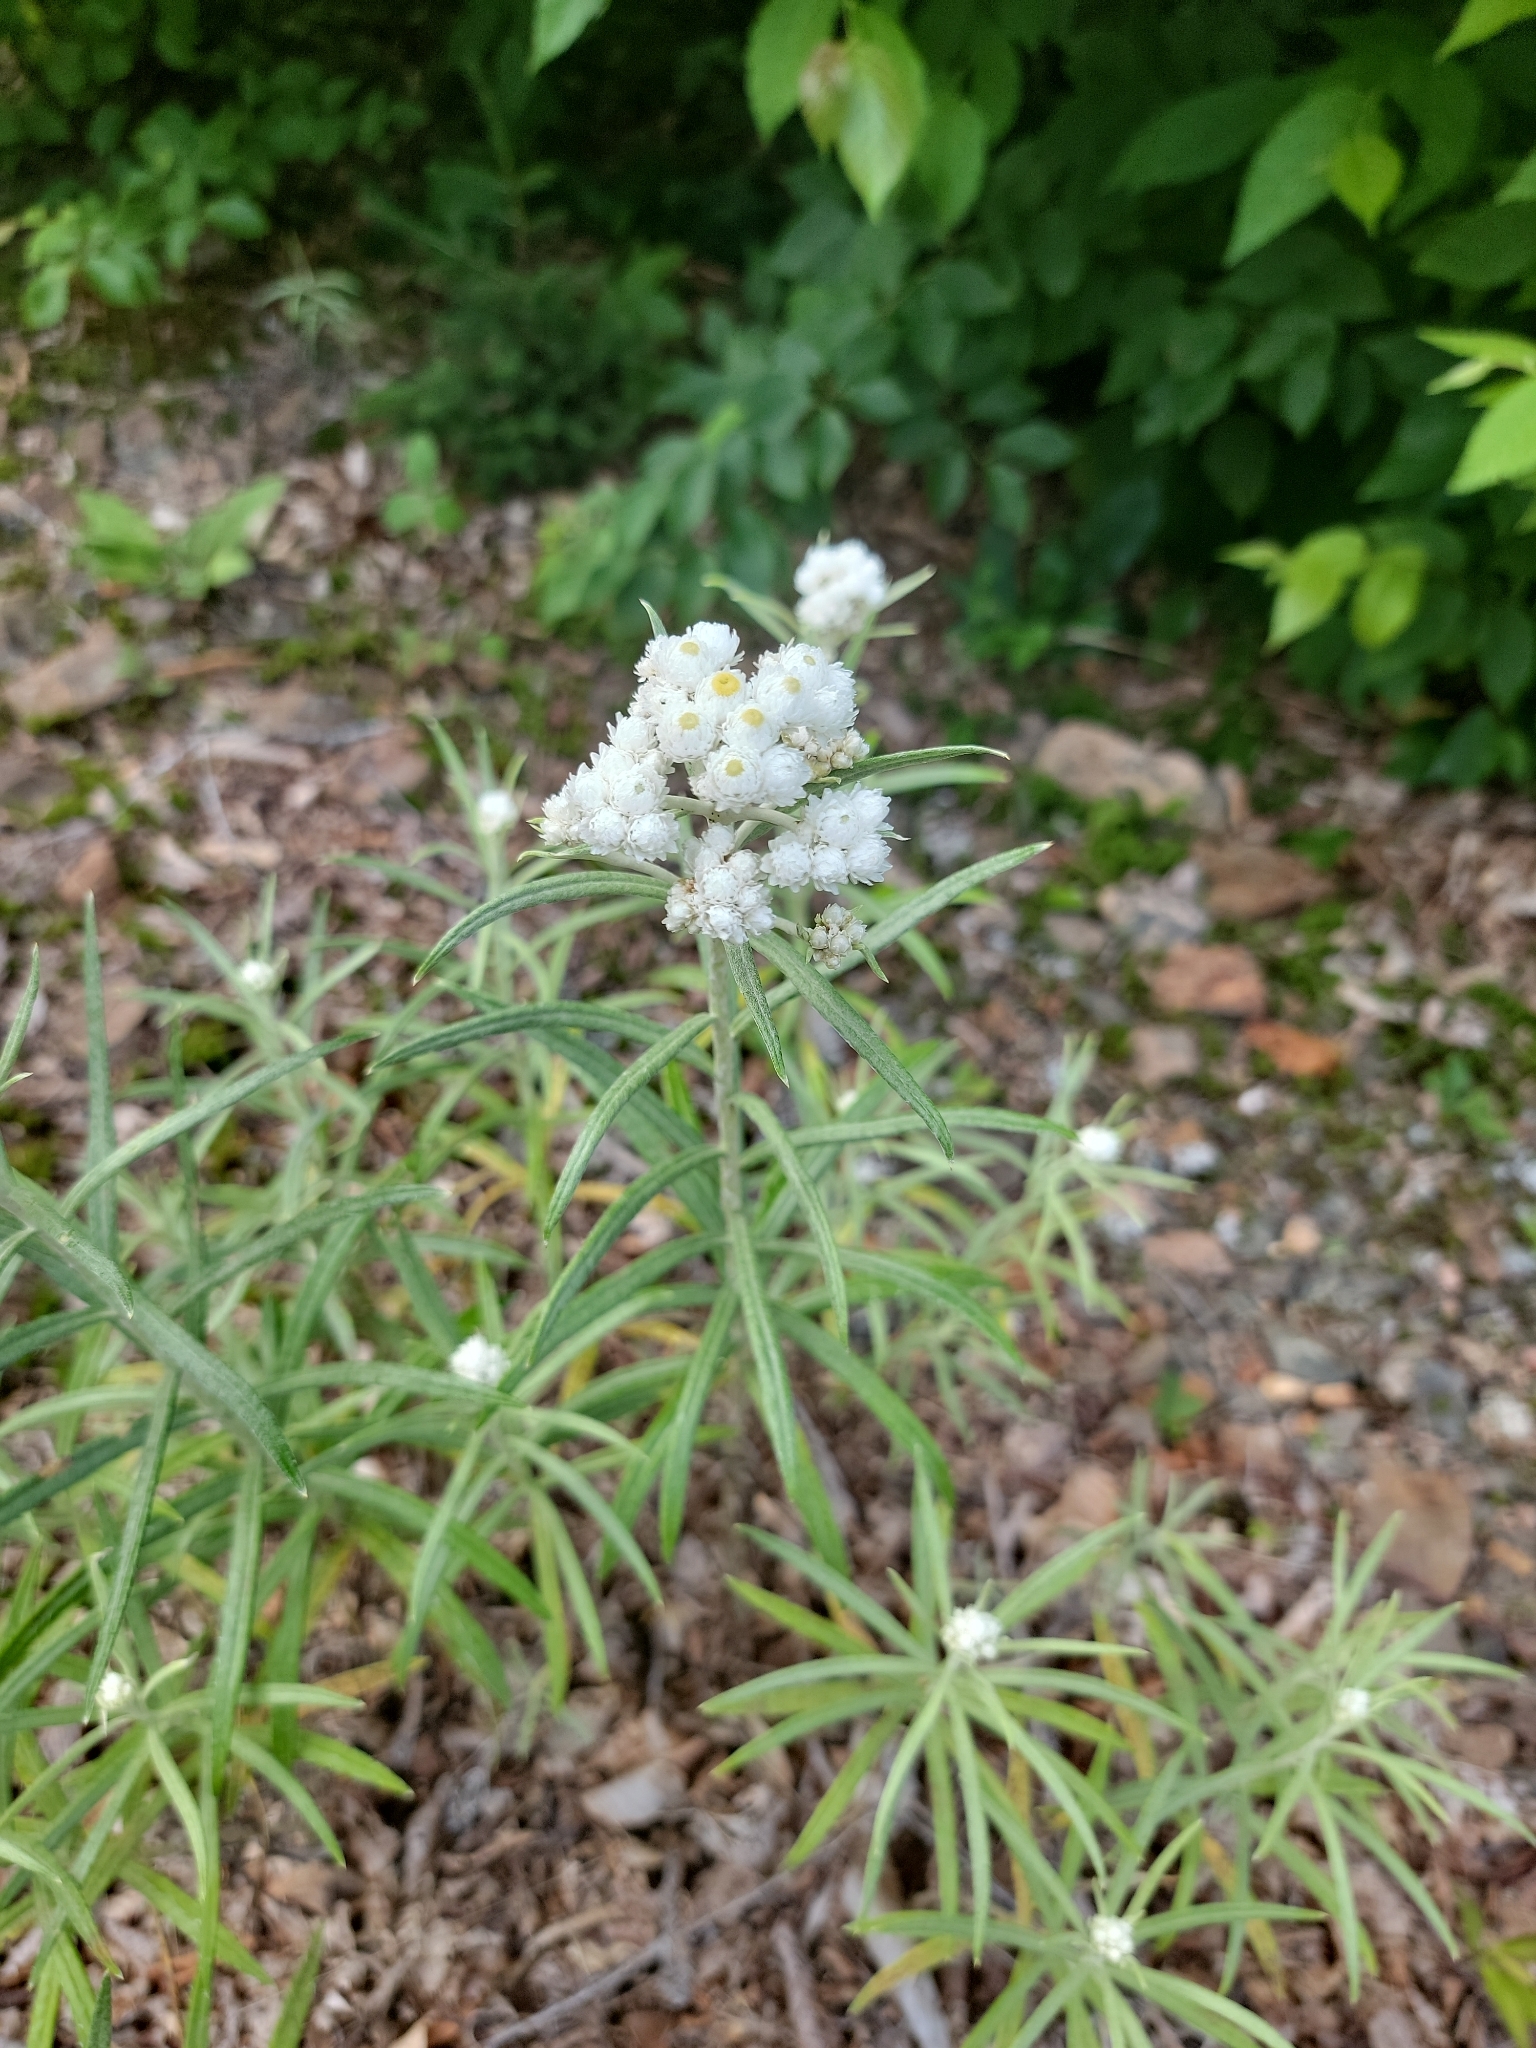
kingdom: Plantae
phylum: Tracheophyta
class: Magnoliopsida
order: Asterales
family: Asteraceae
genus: Anaphalis
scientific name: Anaphalis margaritacea
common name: Pearly everlasting
